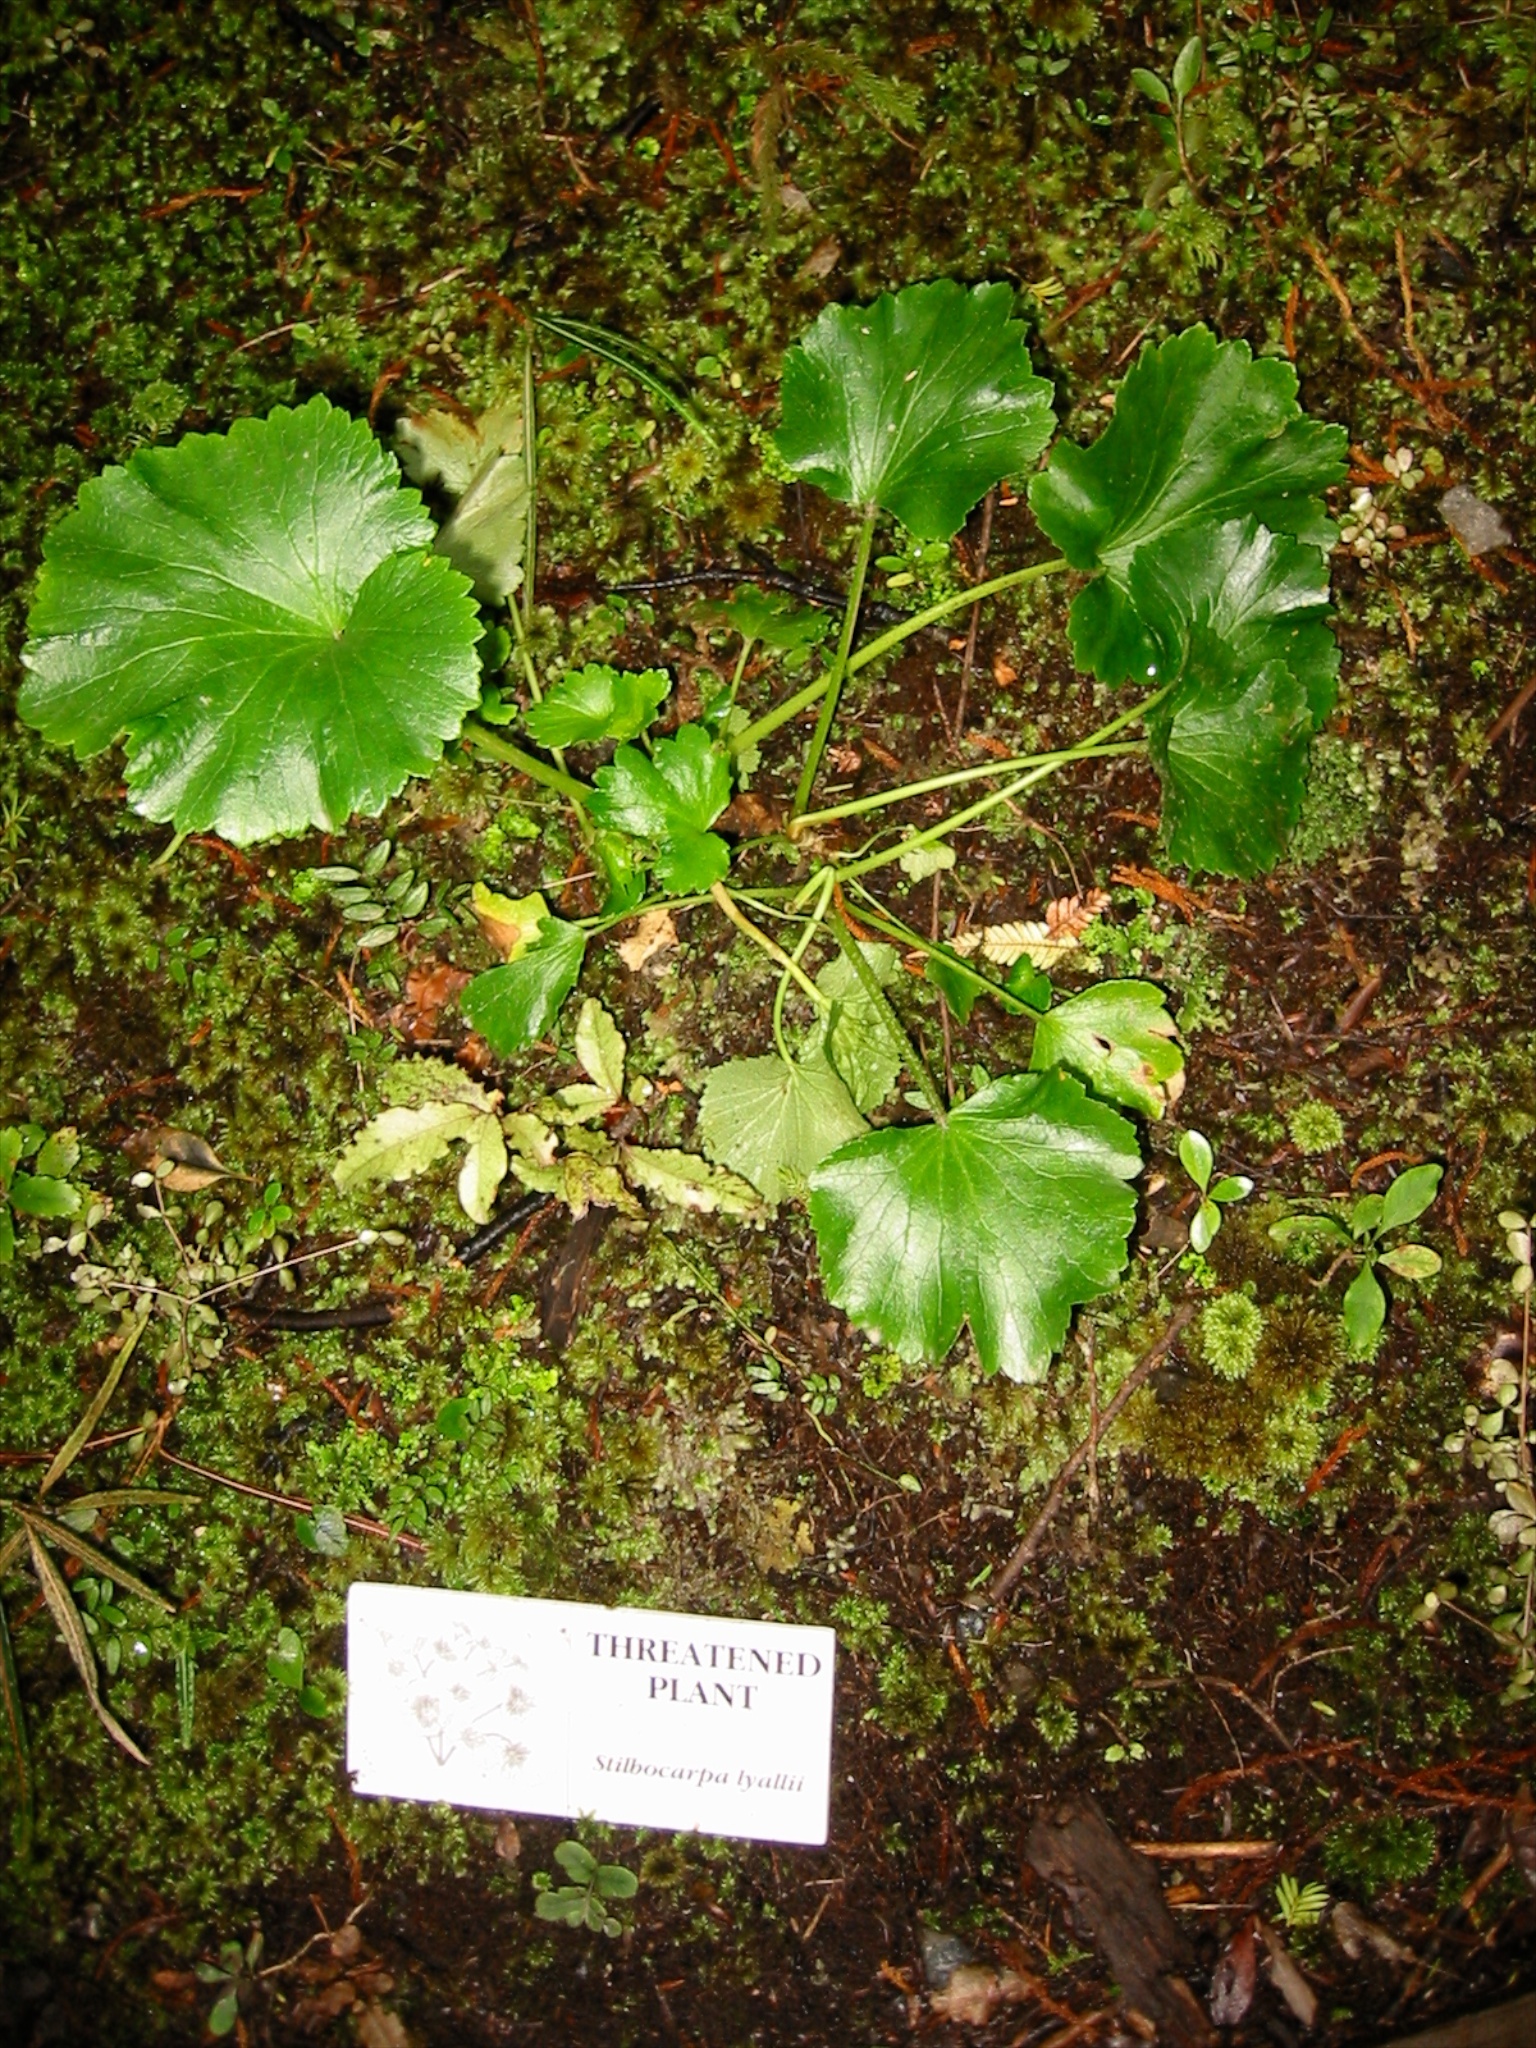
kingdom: Plantae
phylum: Tracheophyta
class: Magnoliopsida
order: Apiales
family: Apiaceae
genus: Azorella
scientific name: Azorella lyallii
